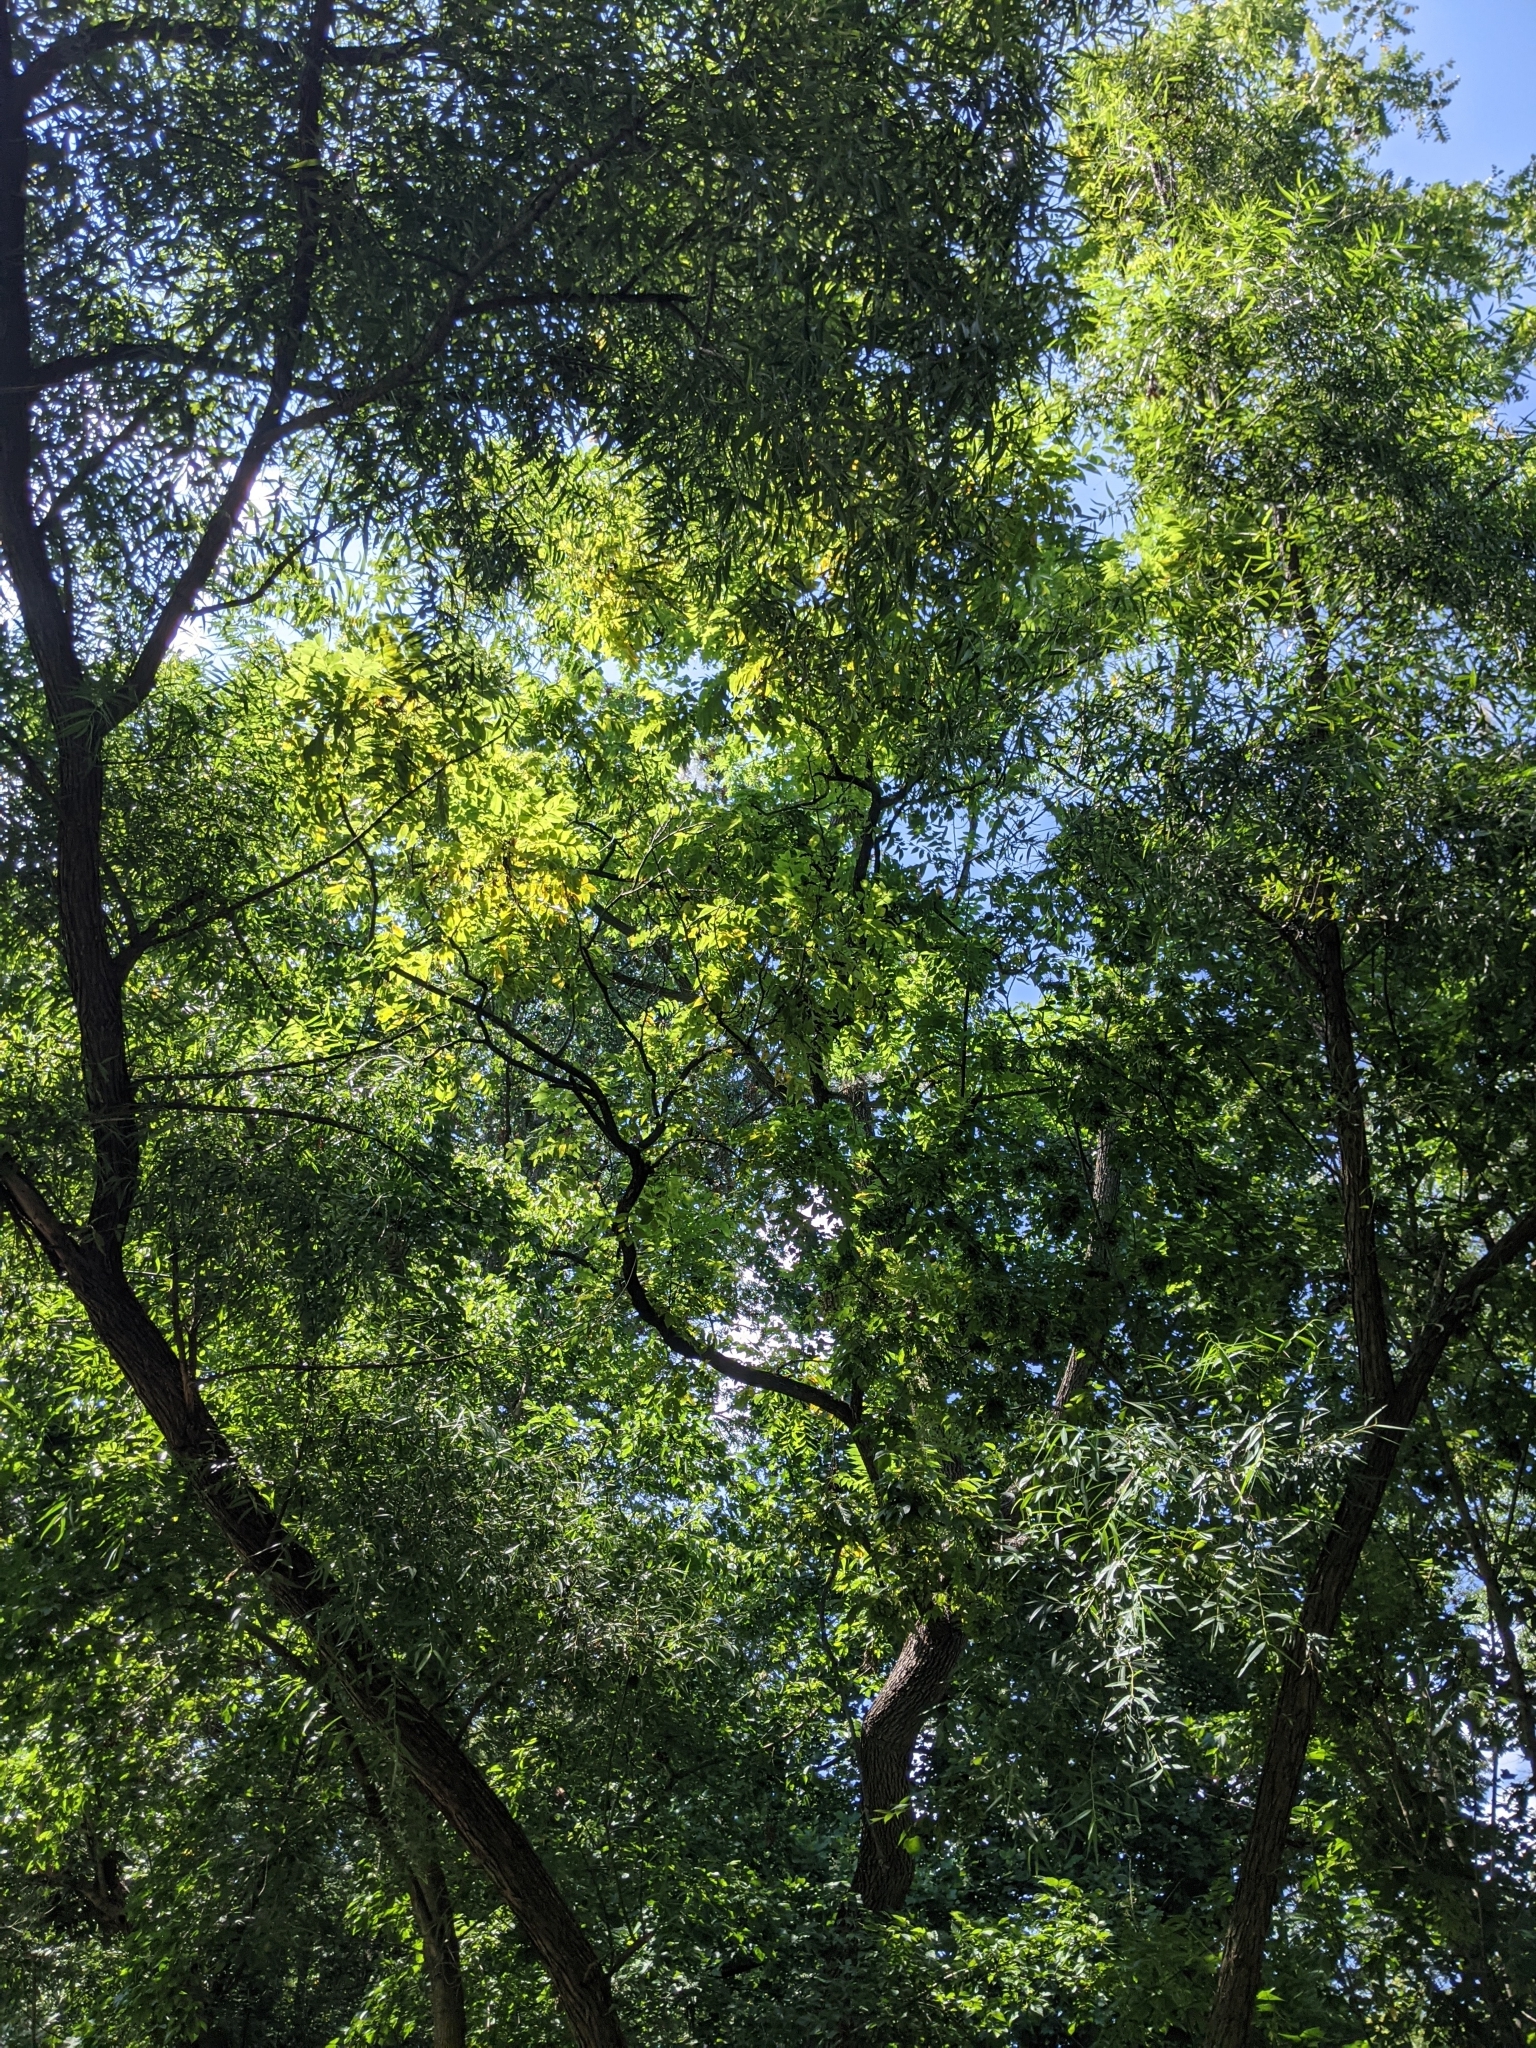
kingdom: Plantae
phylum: Tracheophyta
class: Magnoliopsida
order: Fagales
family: Juglandaceae
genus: Juglans
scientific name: Juglans nigra
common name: Black walnut
